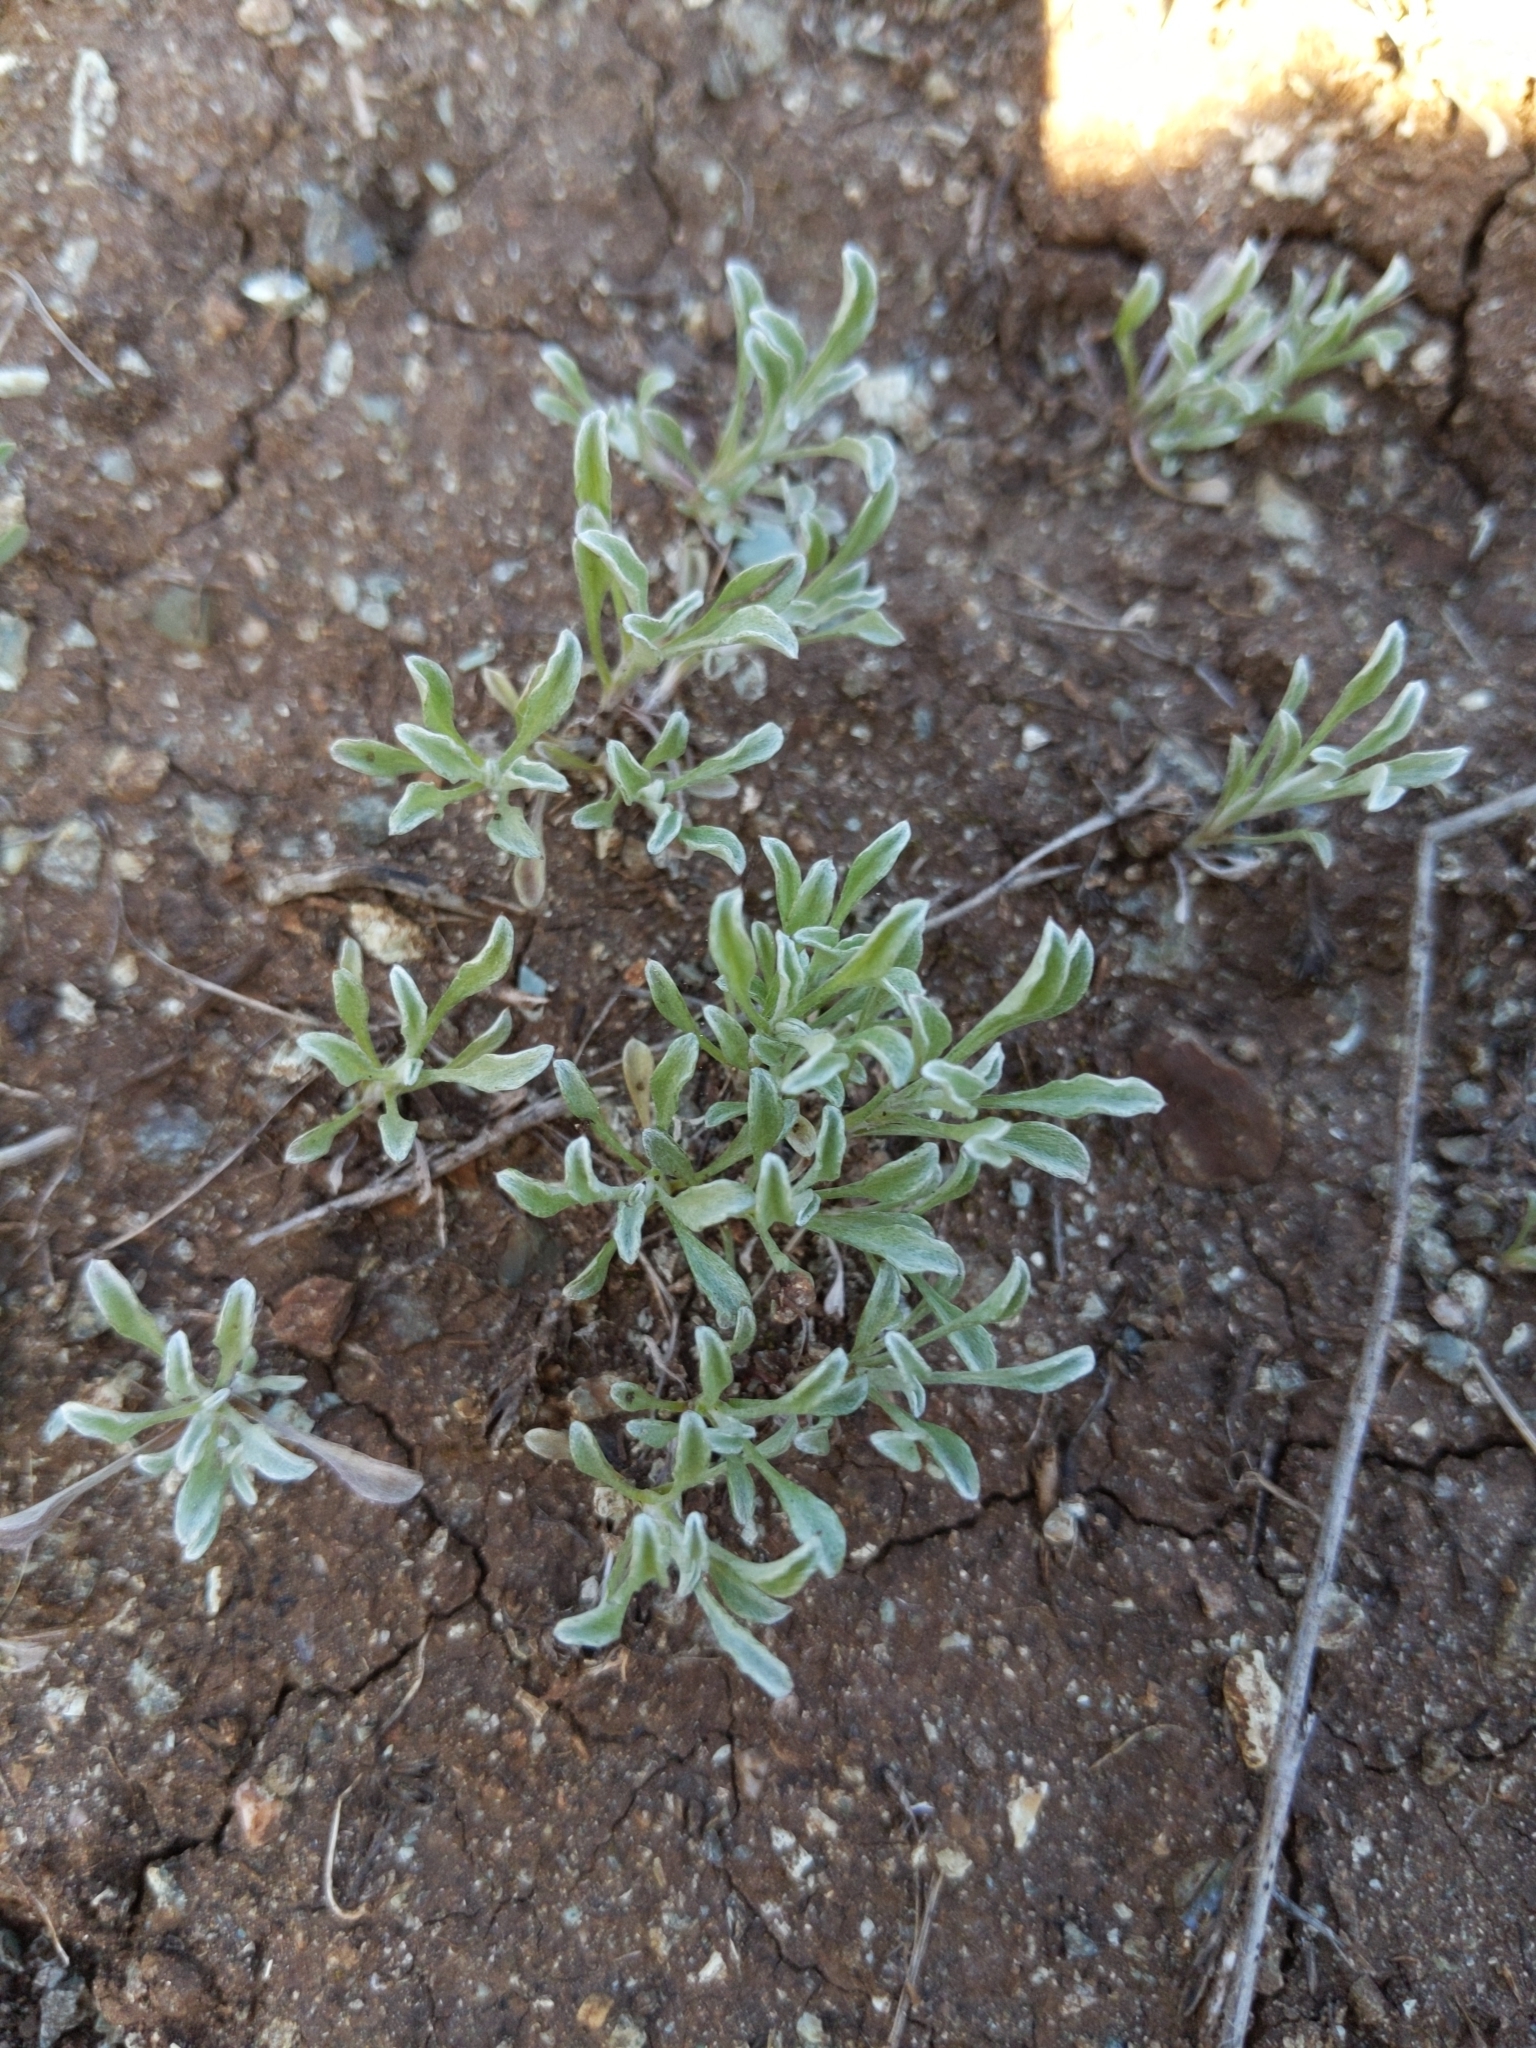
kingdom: Plantae
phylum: Tracheophyta
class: Magnoliopsida
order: Asterales
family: Asteraceae
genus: Hesperevax
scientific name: Hesperevax sparsiflora
